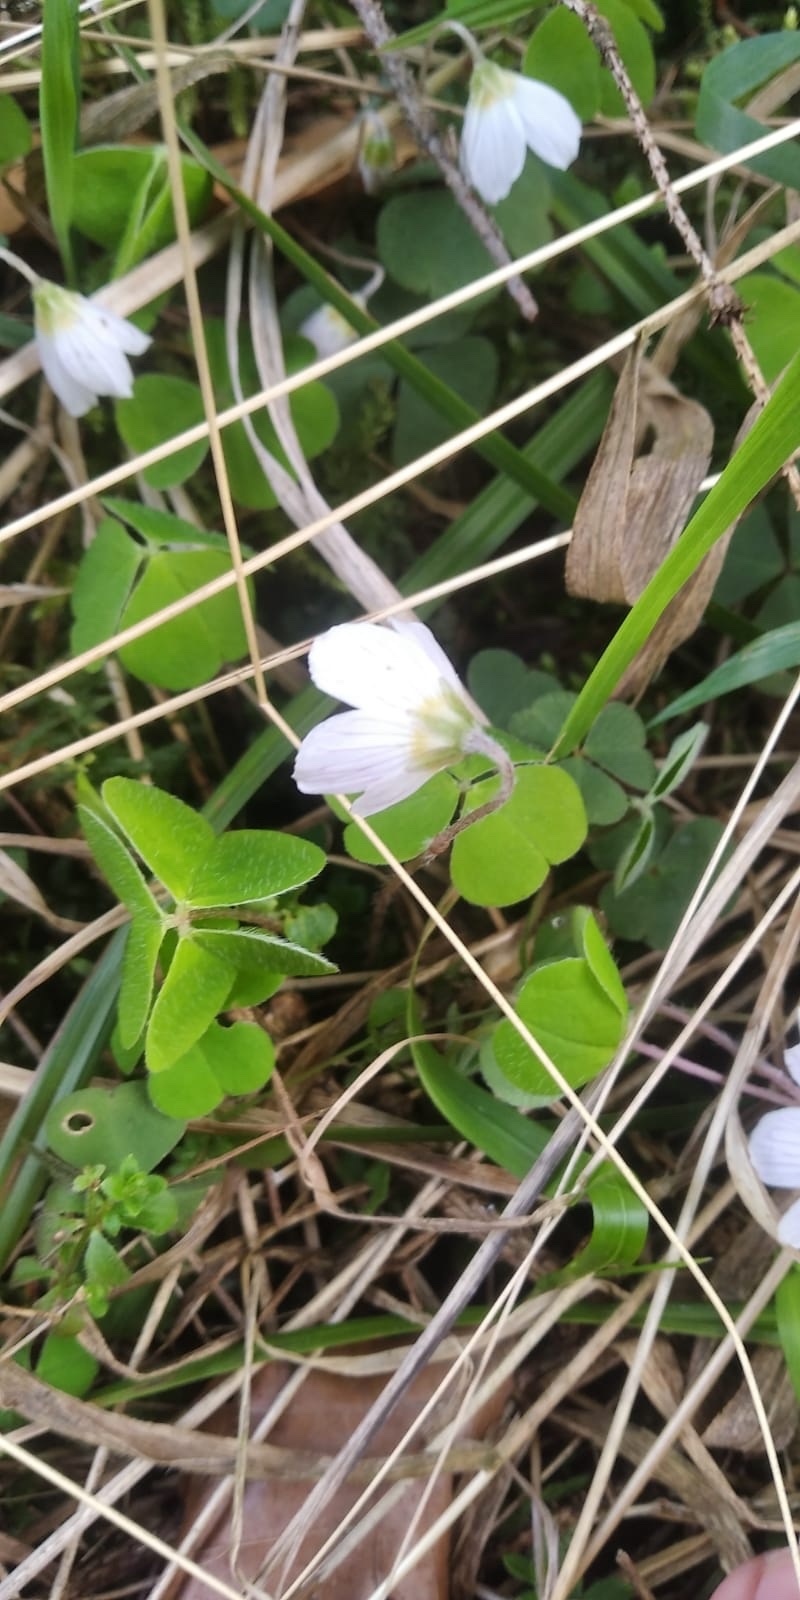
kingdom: Plantae
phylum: Tracheophyta
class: Magnoliopsida
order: Oxalidales
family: Oxalidaceae
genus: Oxalis
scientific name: Oxalis acetosella
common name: Wood-sorrel
